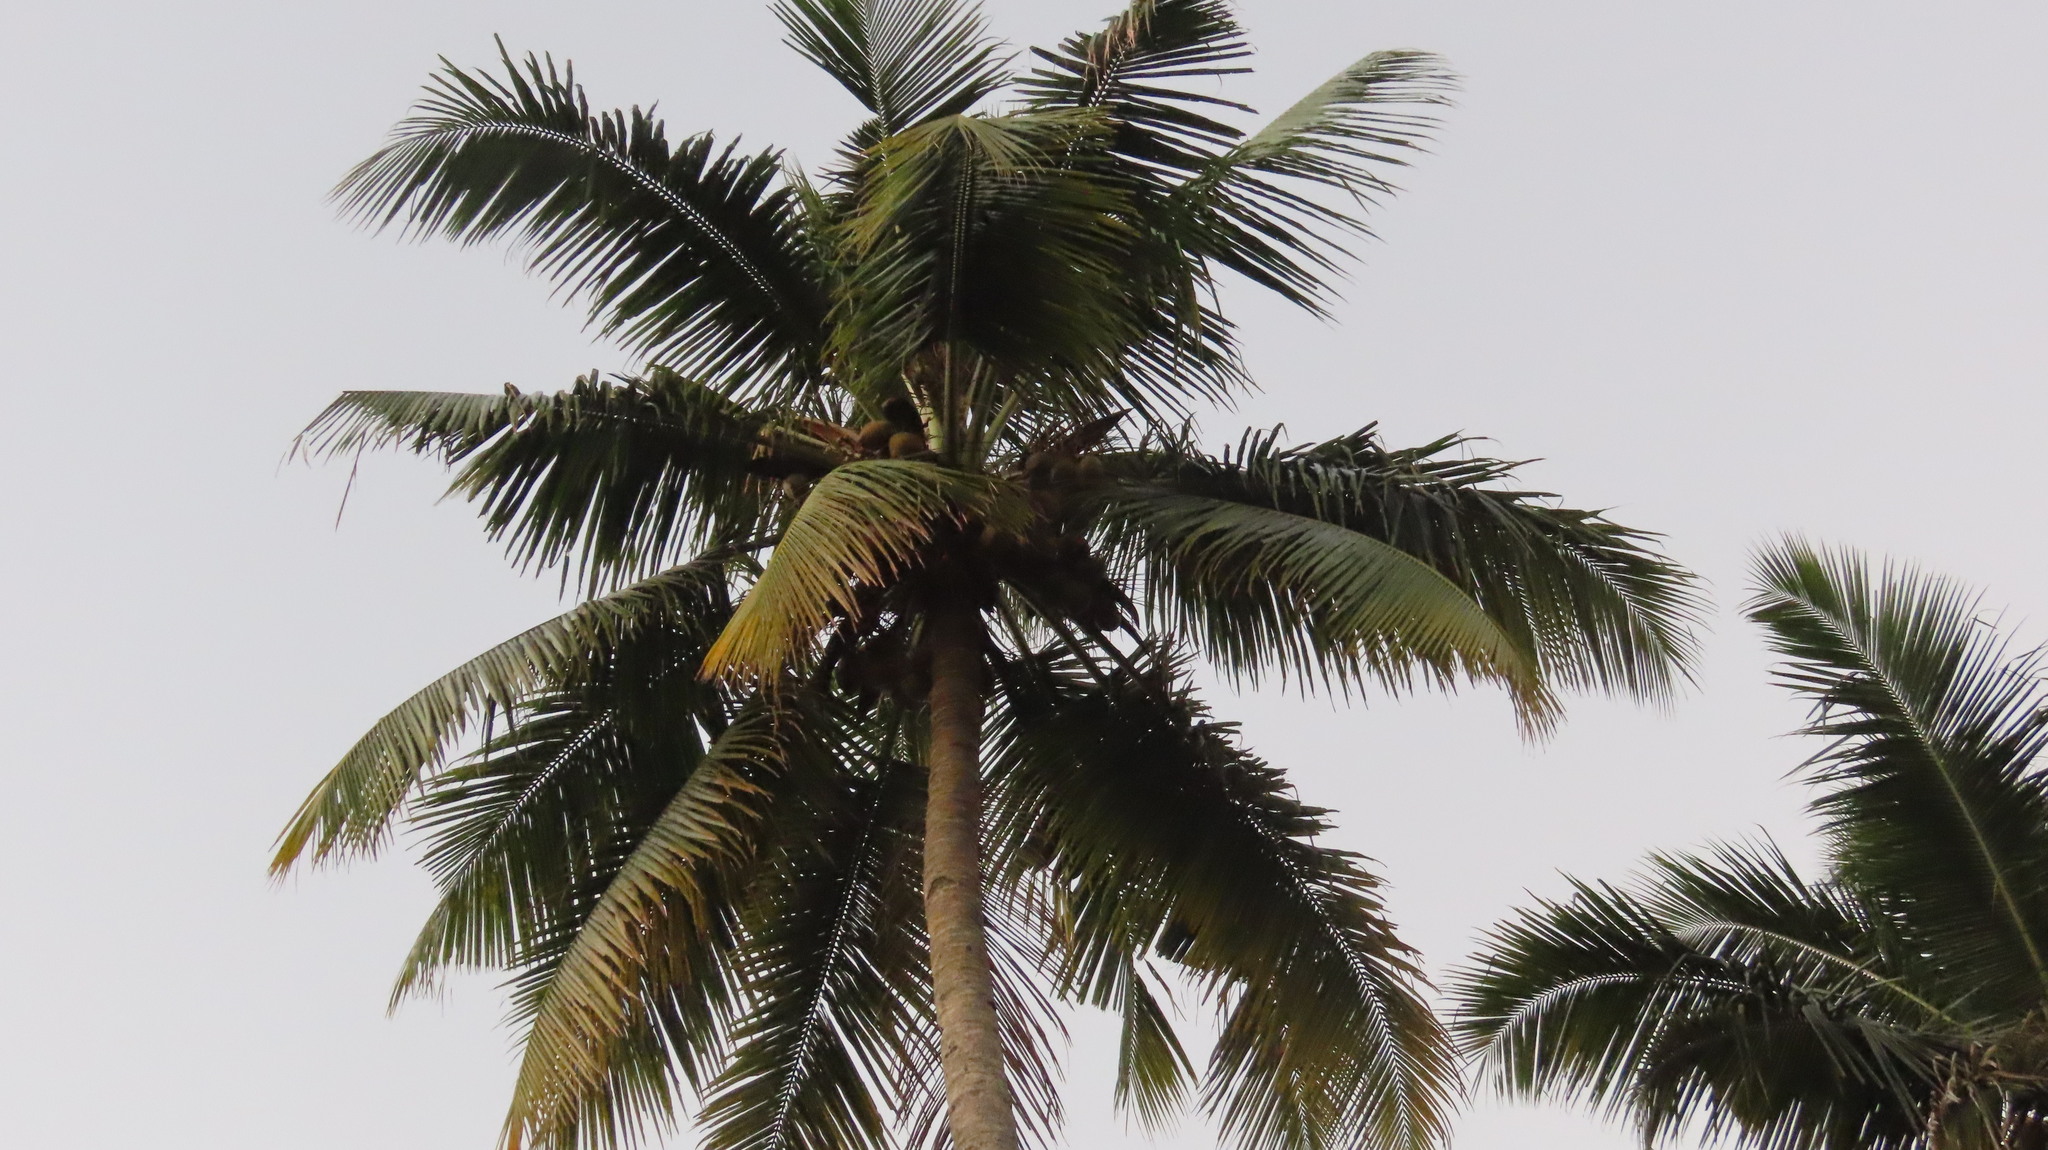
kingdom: Plantae
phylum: Tracheophyta
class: Liliopsida
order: Arecales
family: Arecaceae
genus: Cocos
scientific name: Cocos nucifera
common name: Coconut palm
